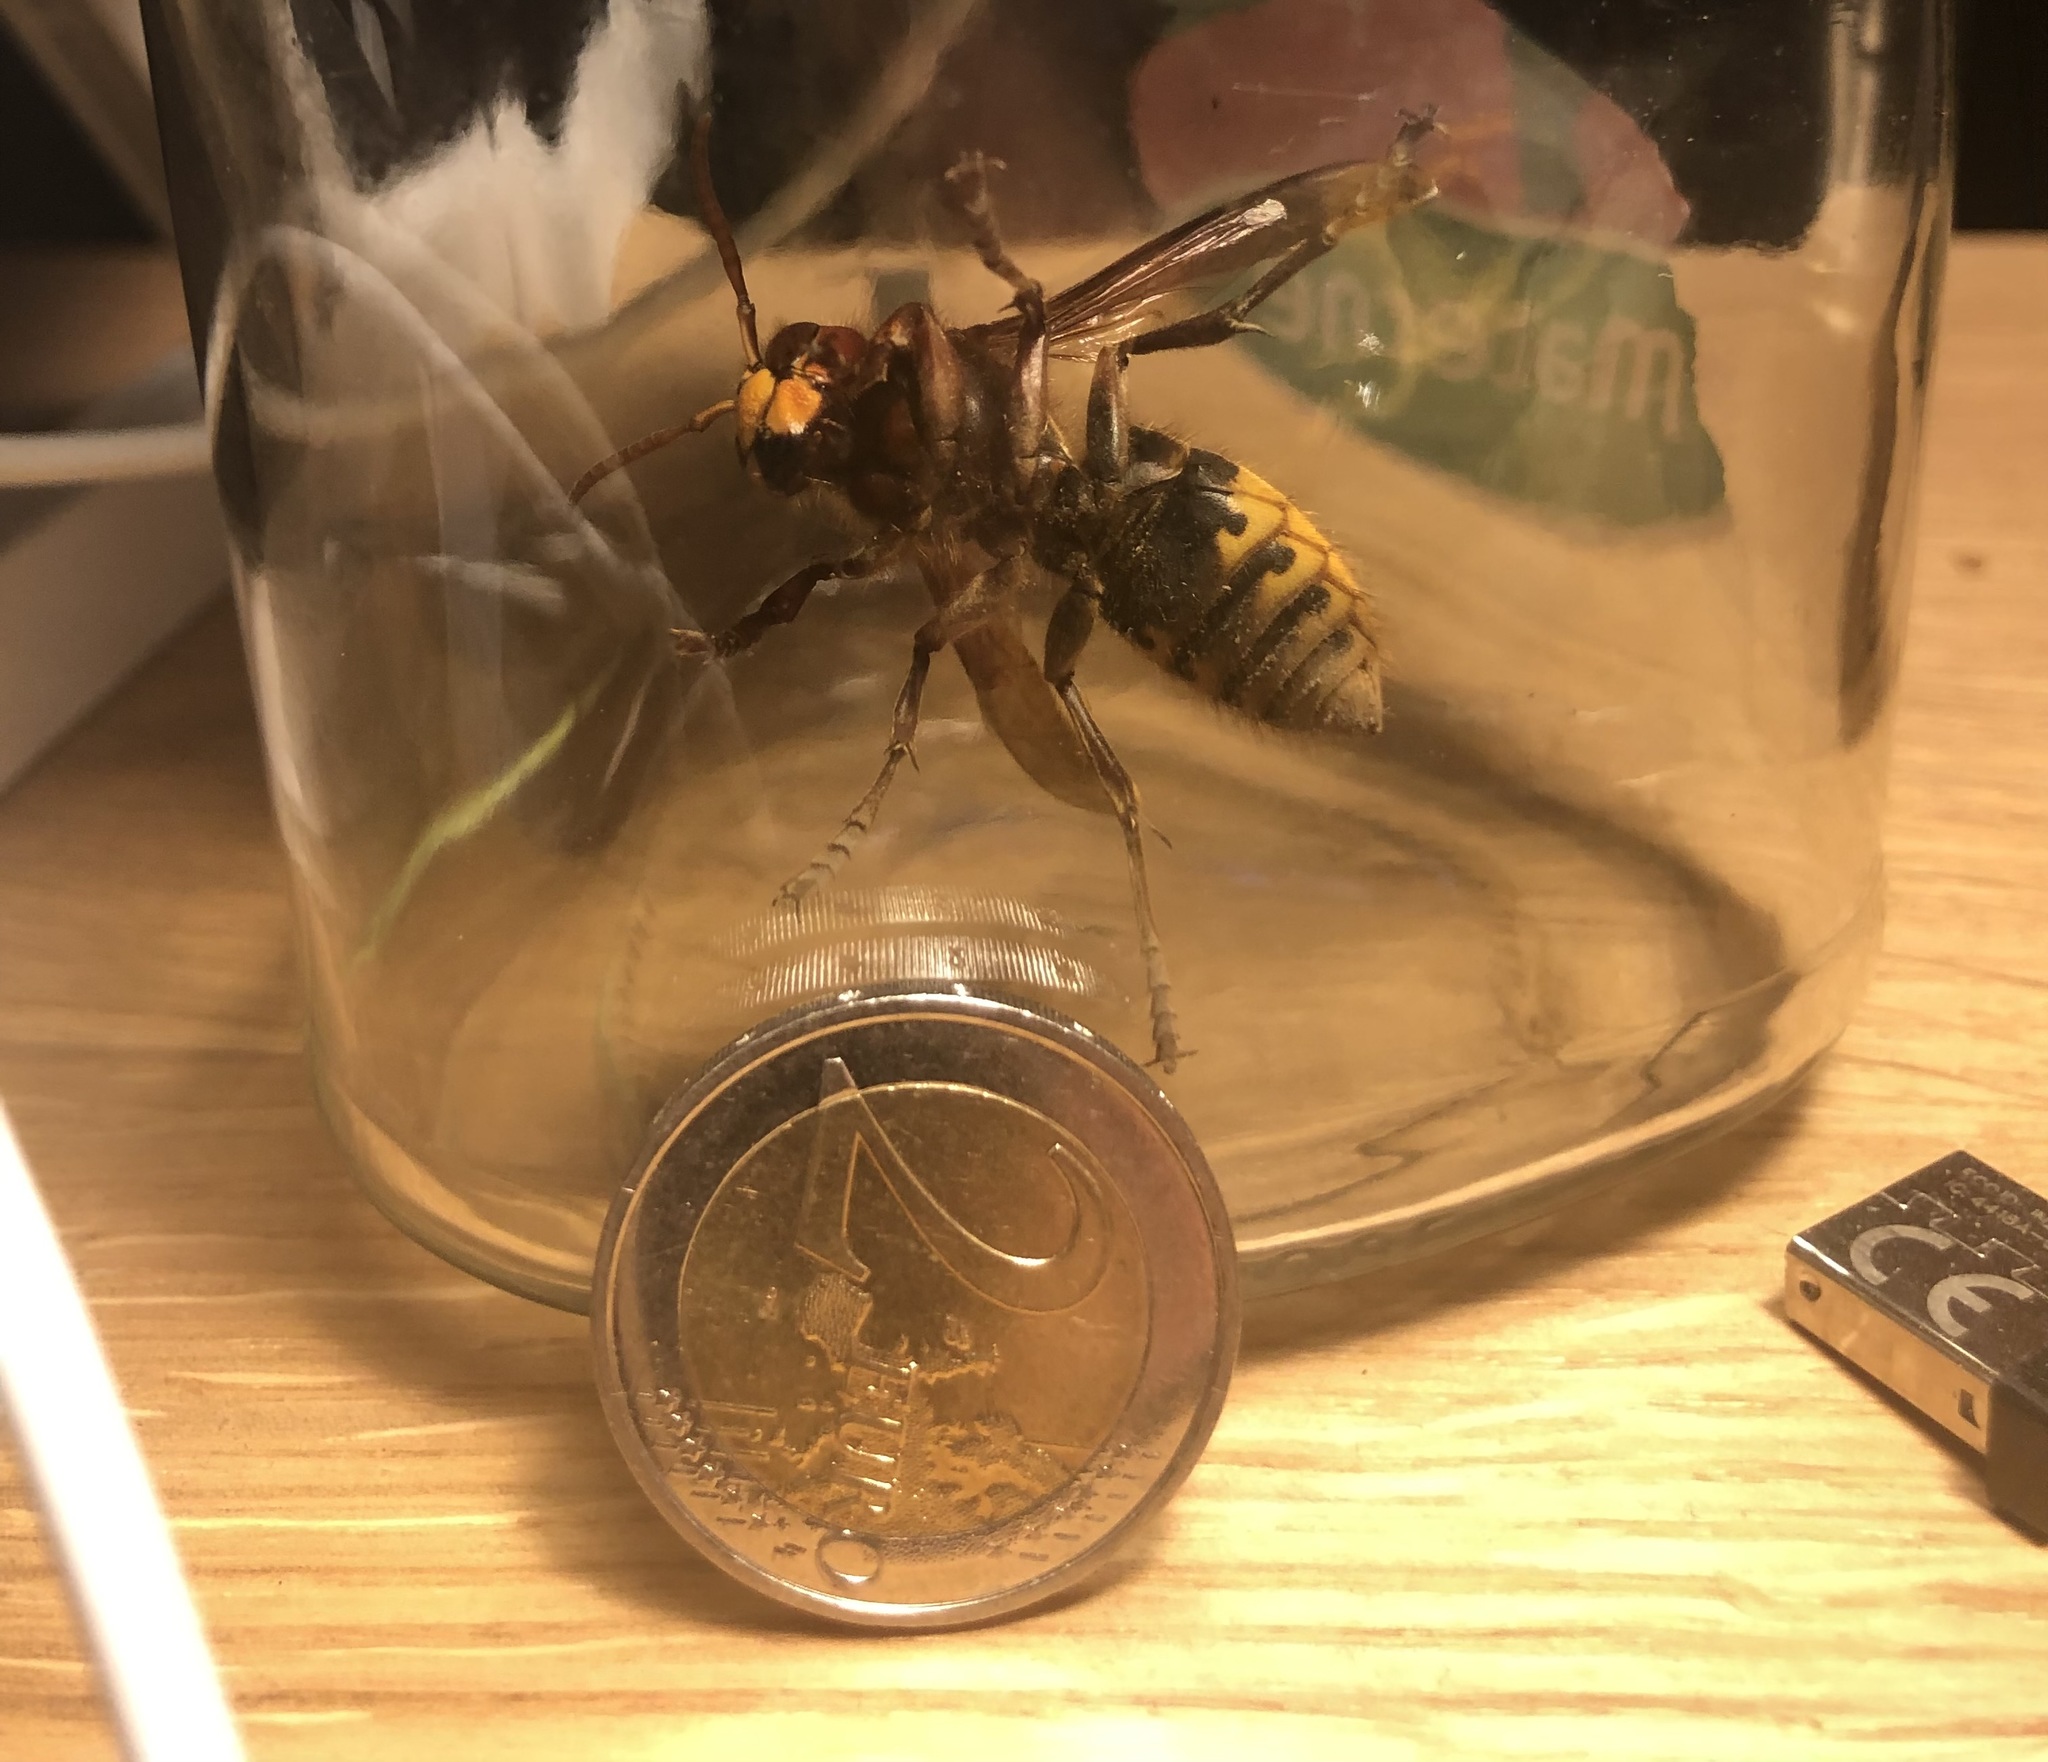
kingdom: Animalia
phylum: Arthropoda
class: Insecta
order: Hymenoptera
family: Vespidae
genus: Vespa
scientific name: Vespa crabro
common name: Hornet
